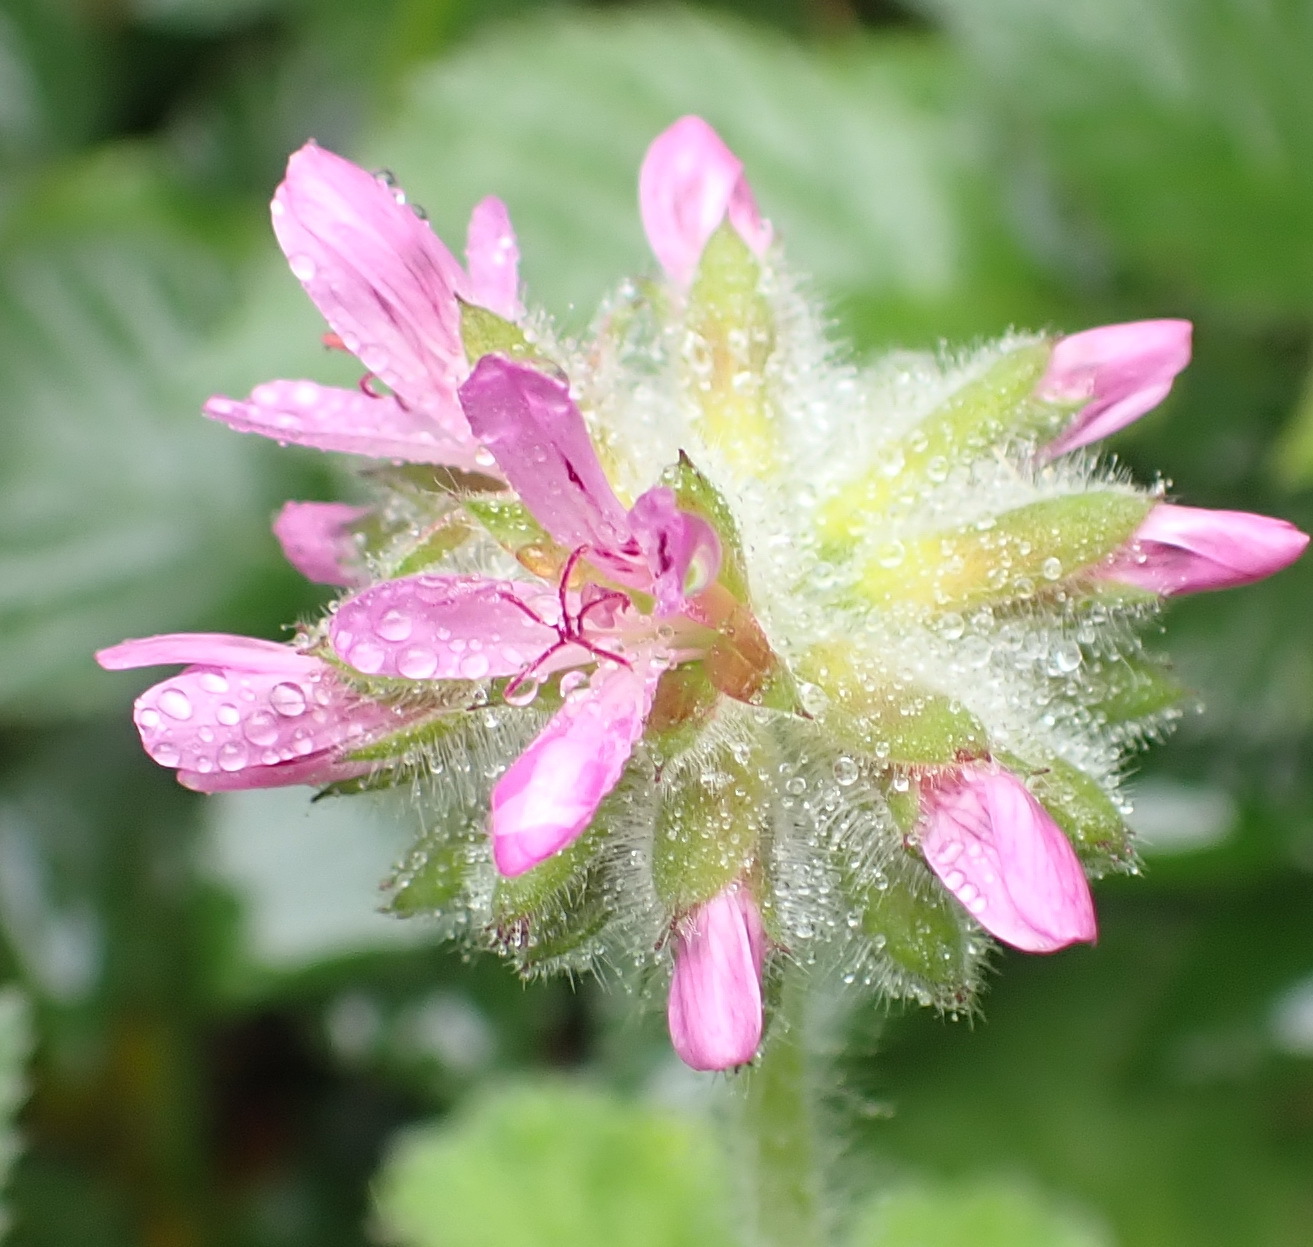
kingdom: Plantae
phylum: Tracheophyta
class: Magnoliopsida
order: Geraniales
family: Geraniaceae
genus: Pelargonium
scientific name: Pelargonium capitatum
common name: Rose scented geranium
